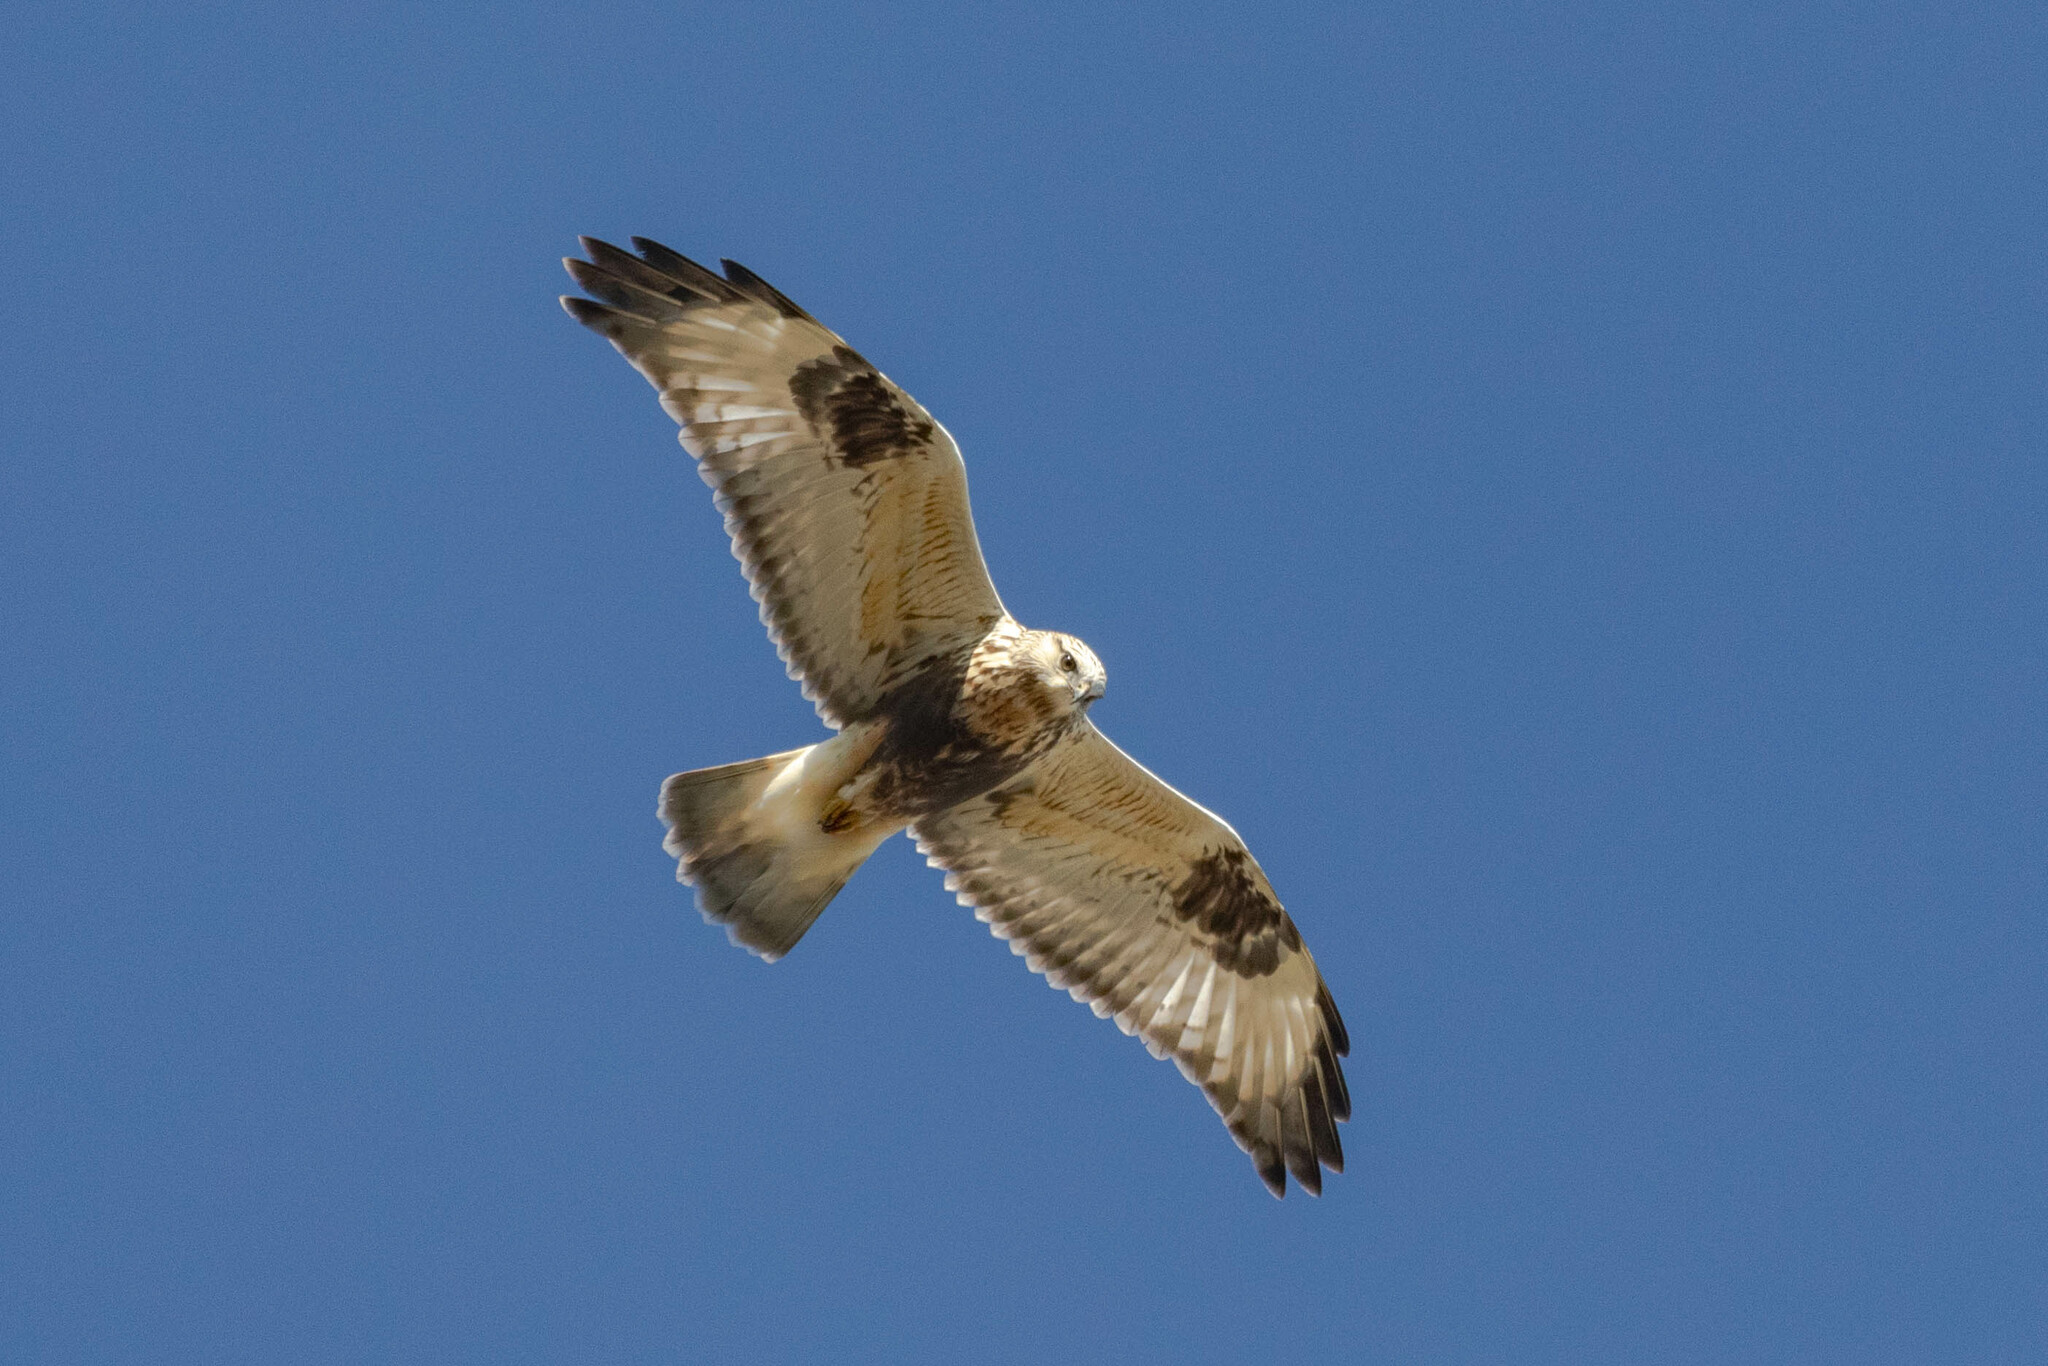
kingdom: Animalia
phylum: Chordata
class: Aves
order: Accipitriformes
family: Accipitridae
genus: Buteo
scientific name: Buteo lagopus
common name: Rough-legged buzzard
